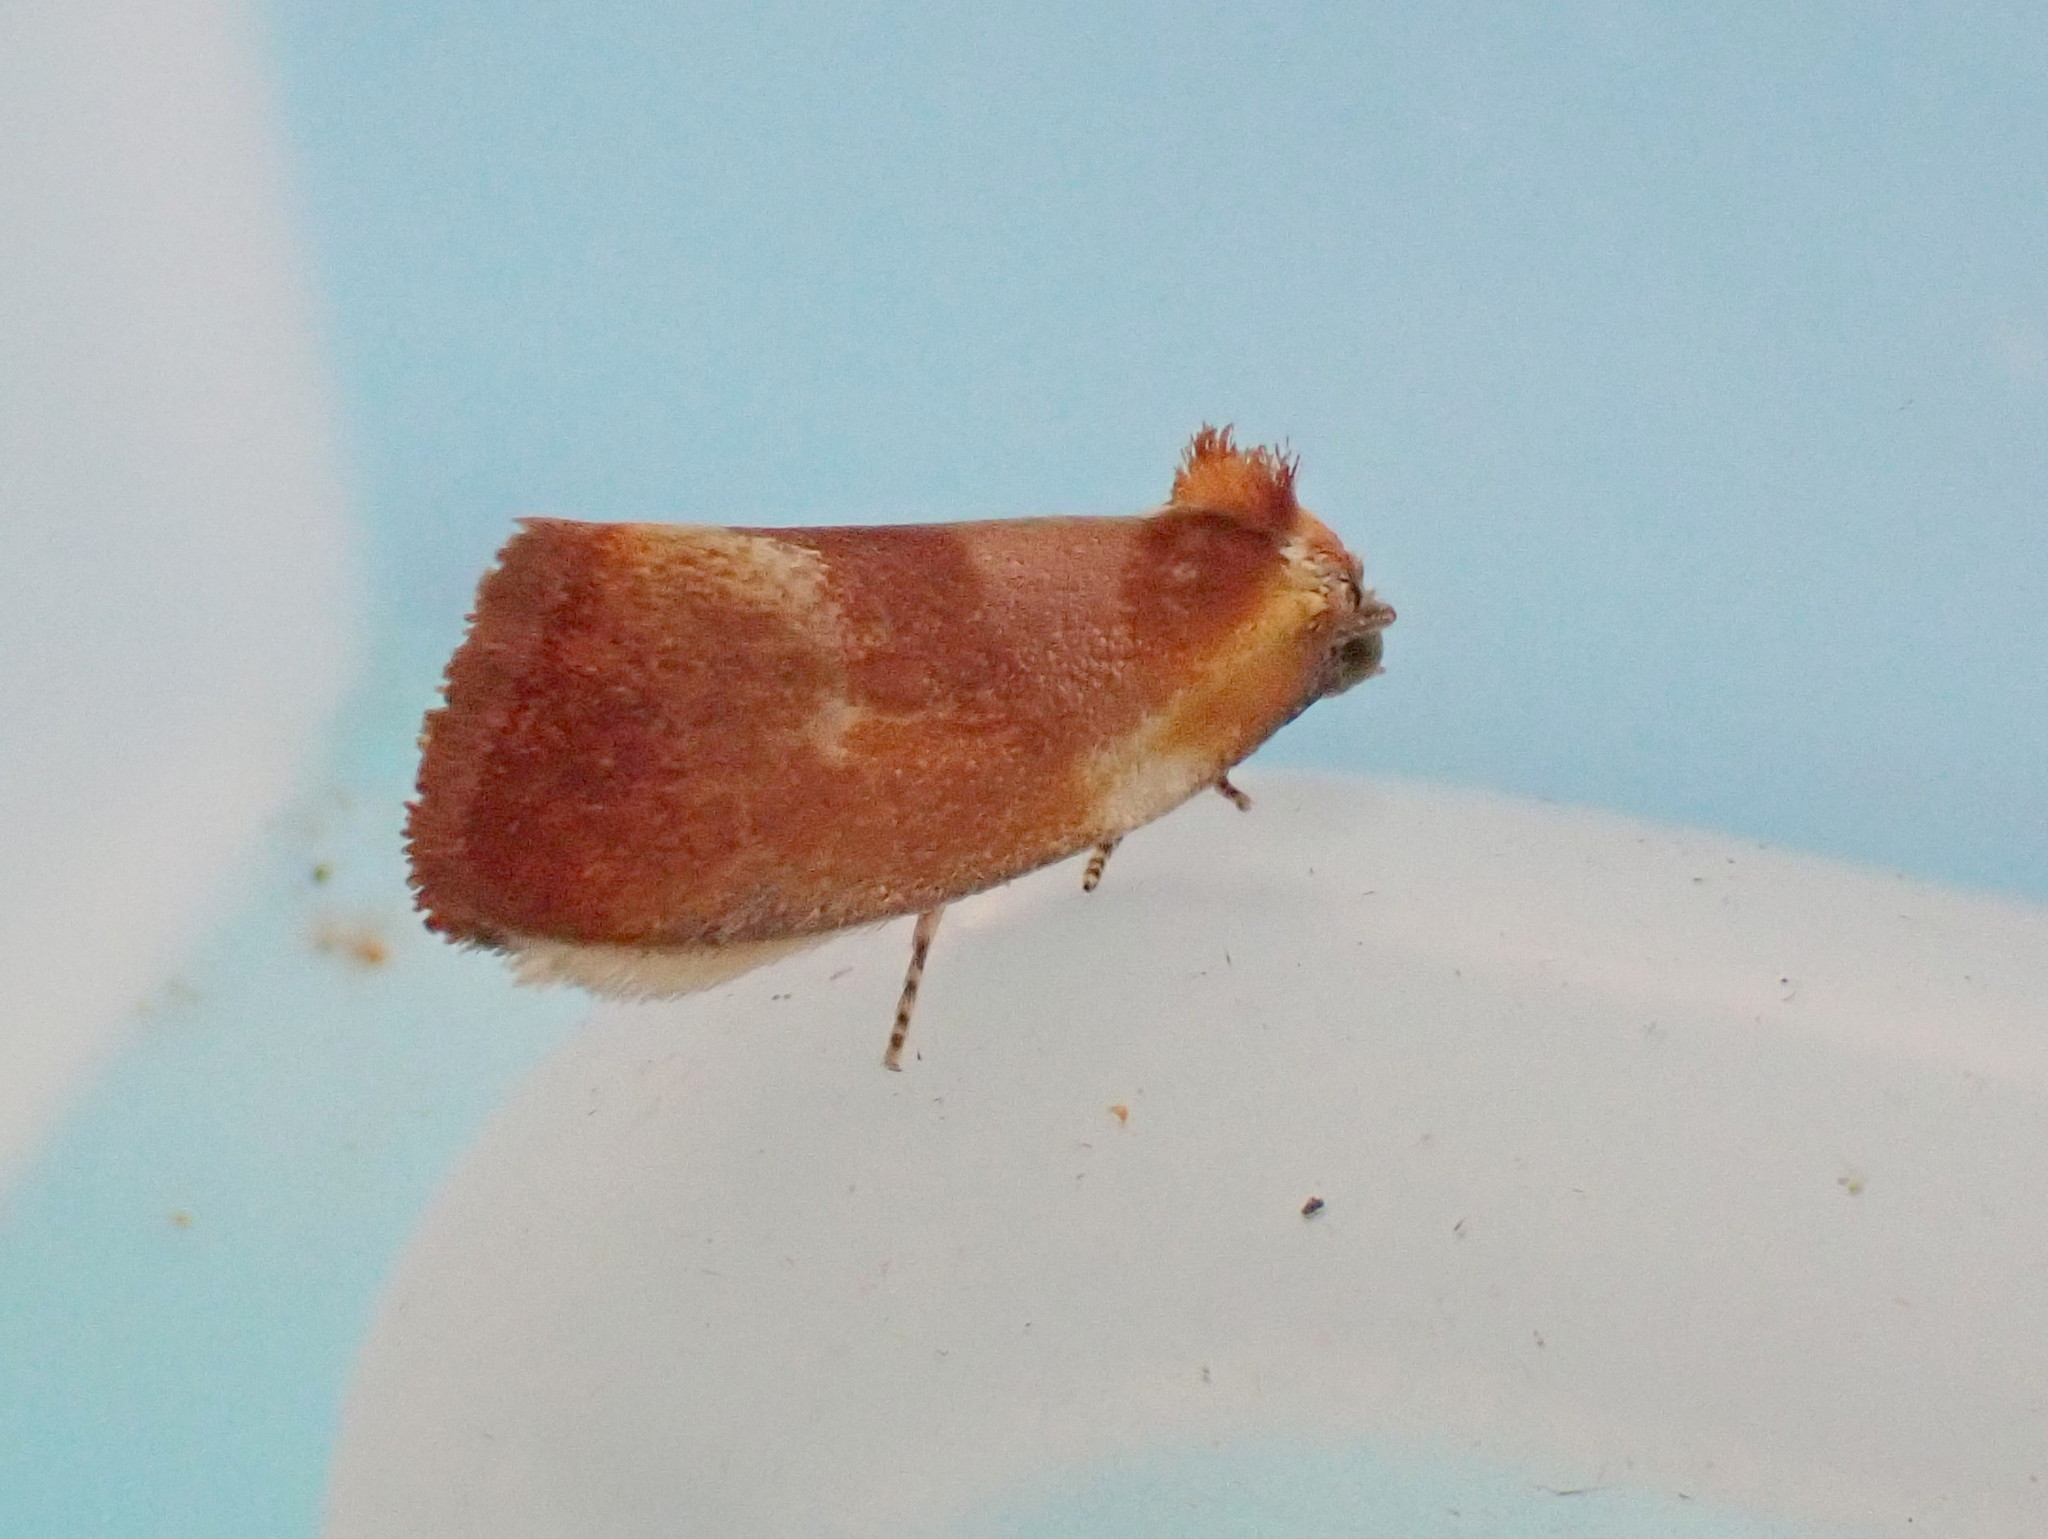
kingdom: Animalia
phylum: Arthropoda
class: Insecta
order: Lepidoptera
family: Tortricidae
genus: Eulia
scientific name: Eulia ministrana
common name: Brassy twist
